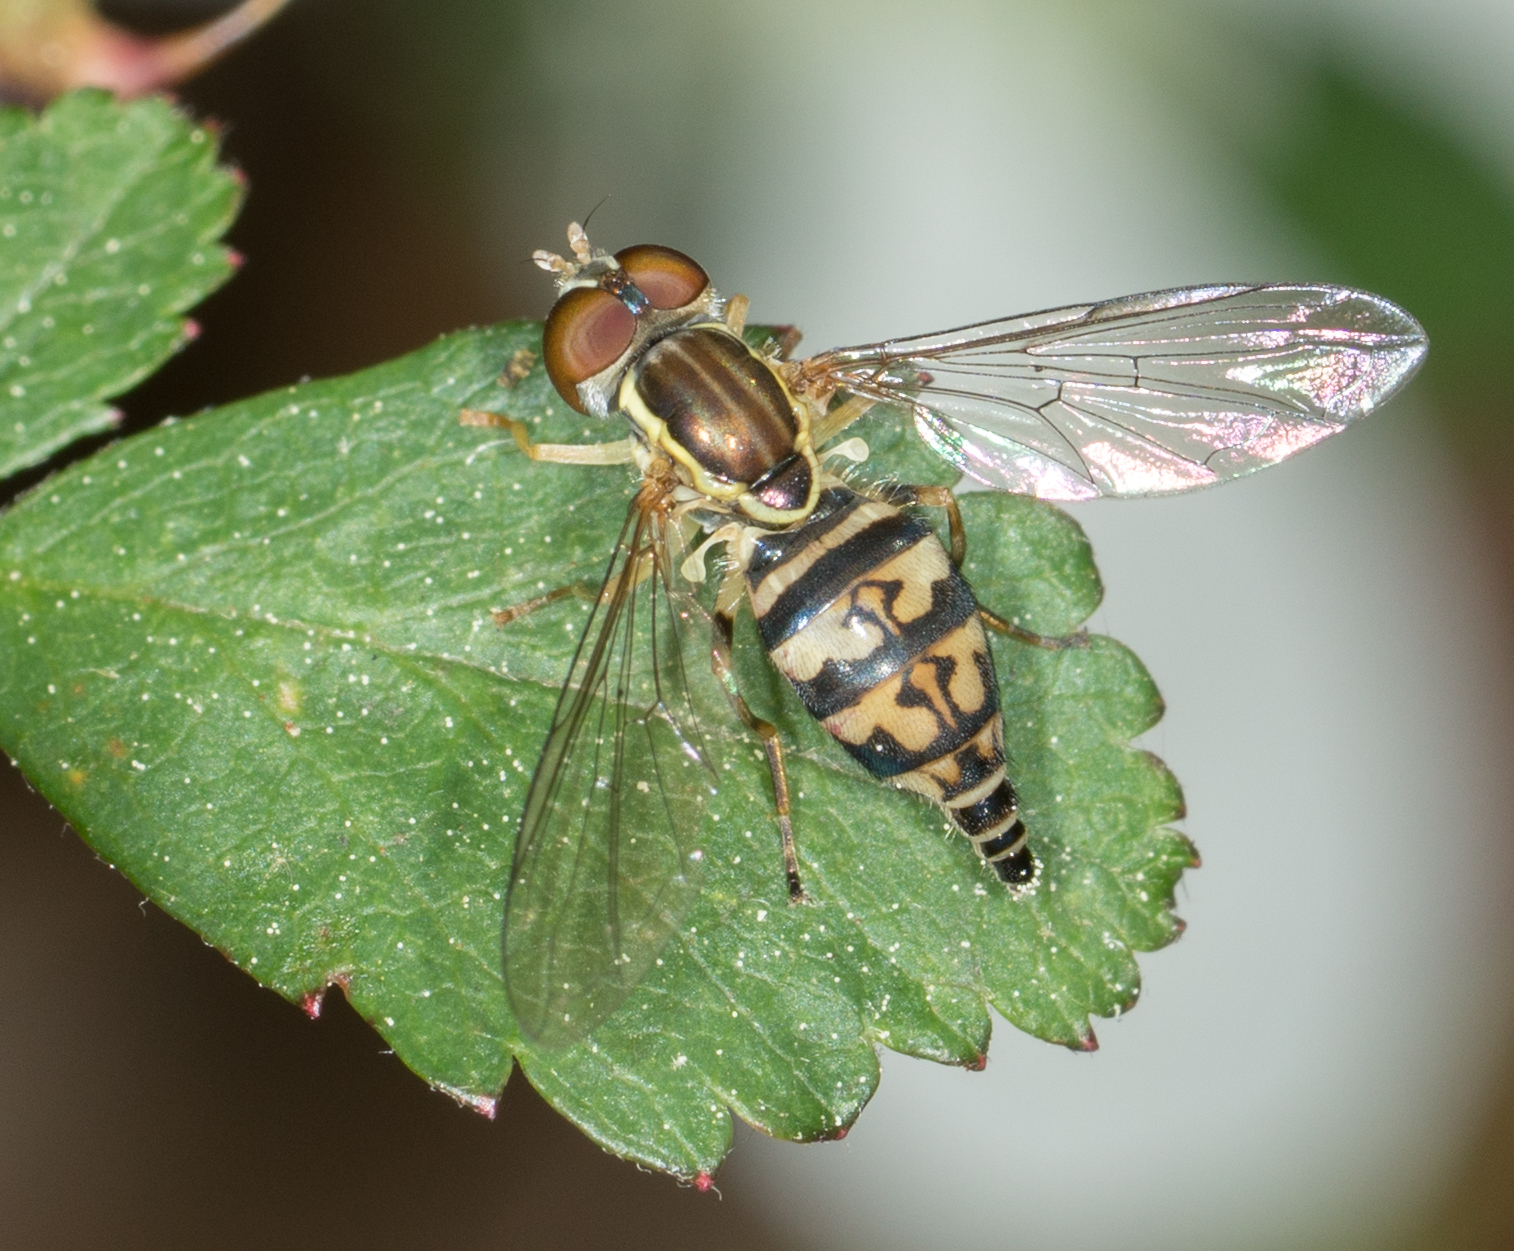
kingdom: Animalia
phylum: Arthropoda
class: Insecta
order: Diptera
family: Syrphidae
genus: Toxomerus
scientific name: Toxomerus geminatus
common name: Eastern calligrapher
